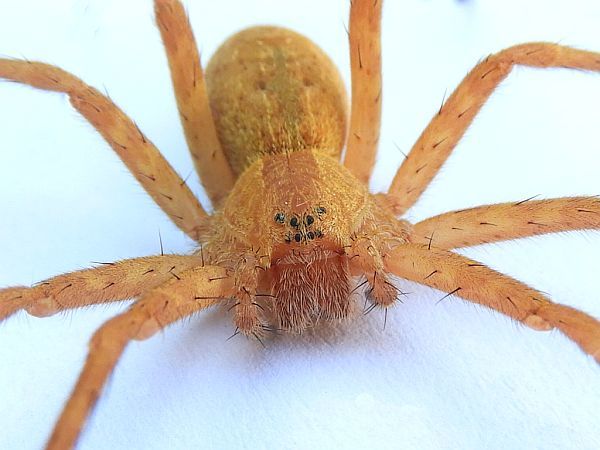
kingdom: Animalia
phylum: Arthropoda
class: Arachnida
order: Araneae
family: Pisauridae
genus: Pisaurina
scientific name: Pisaurina mira
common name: American nursery web spider
